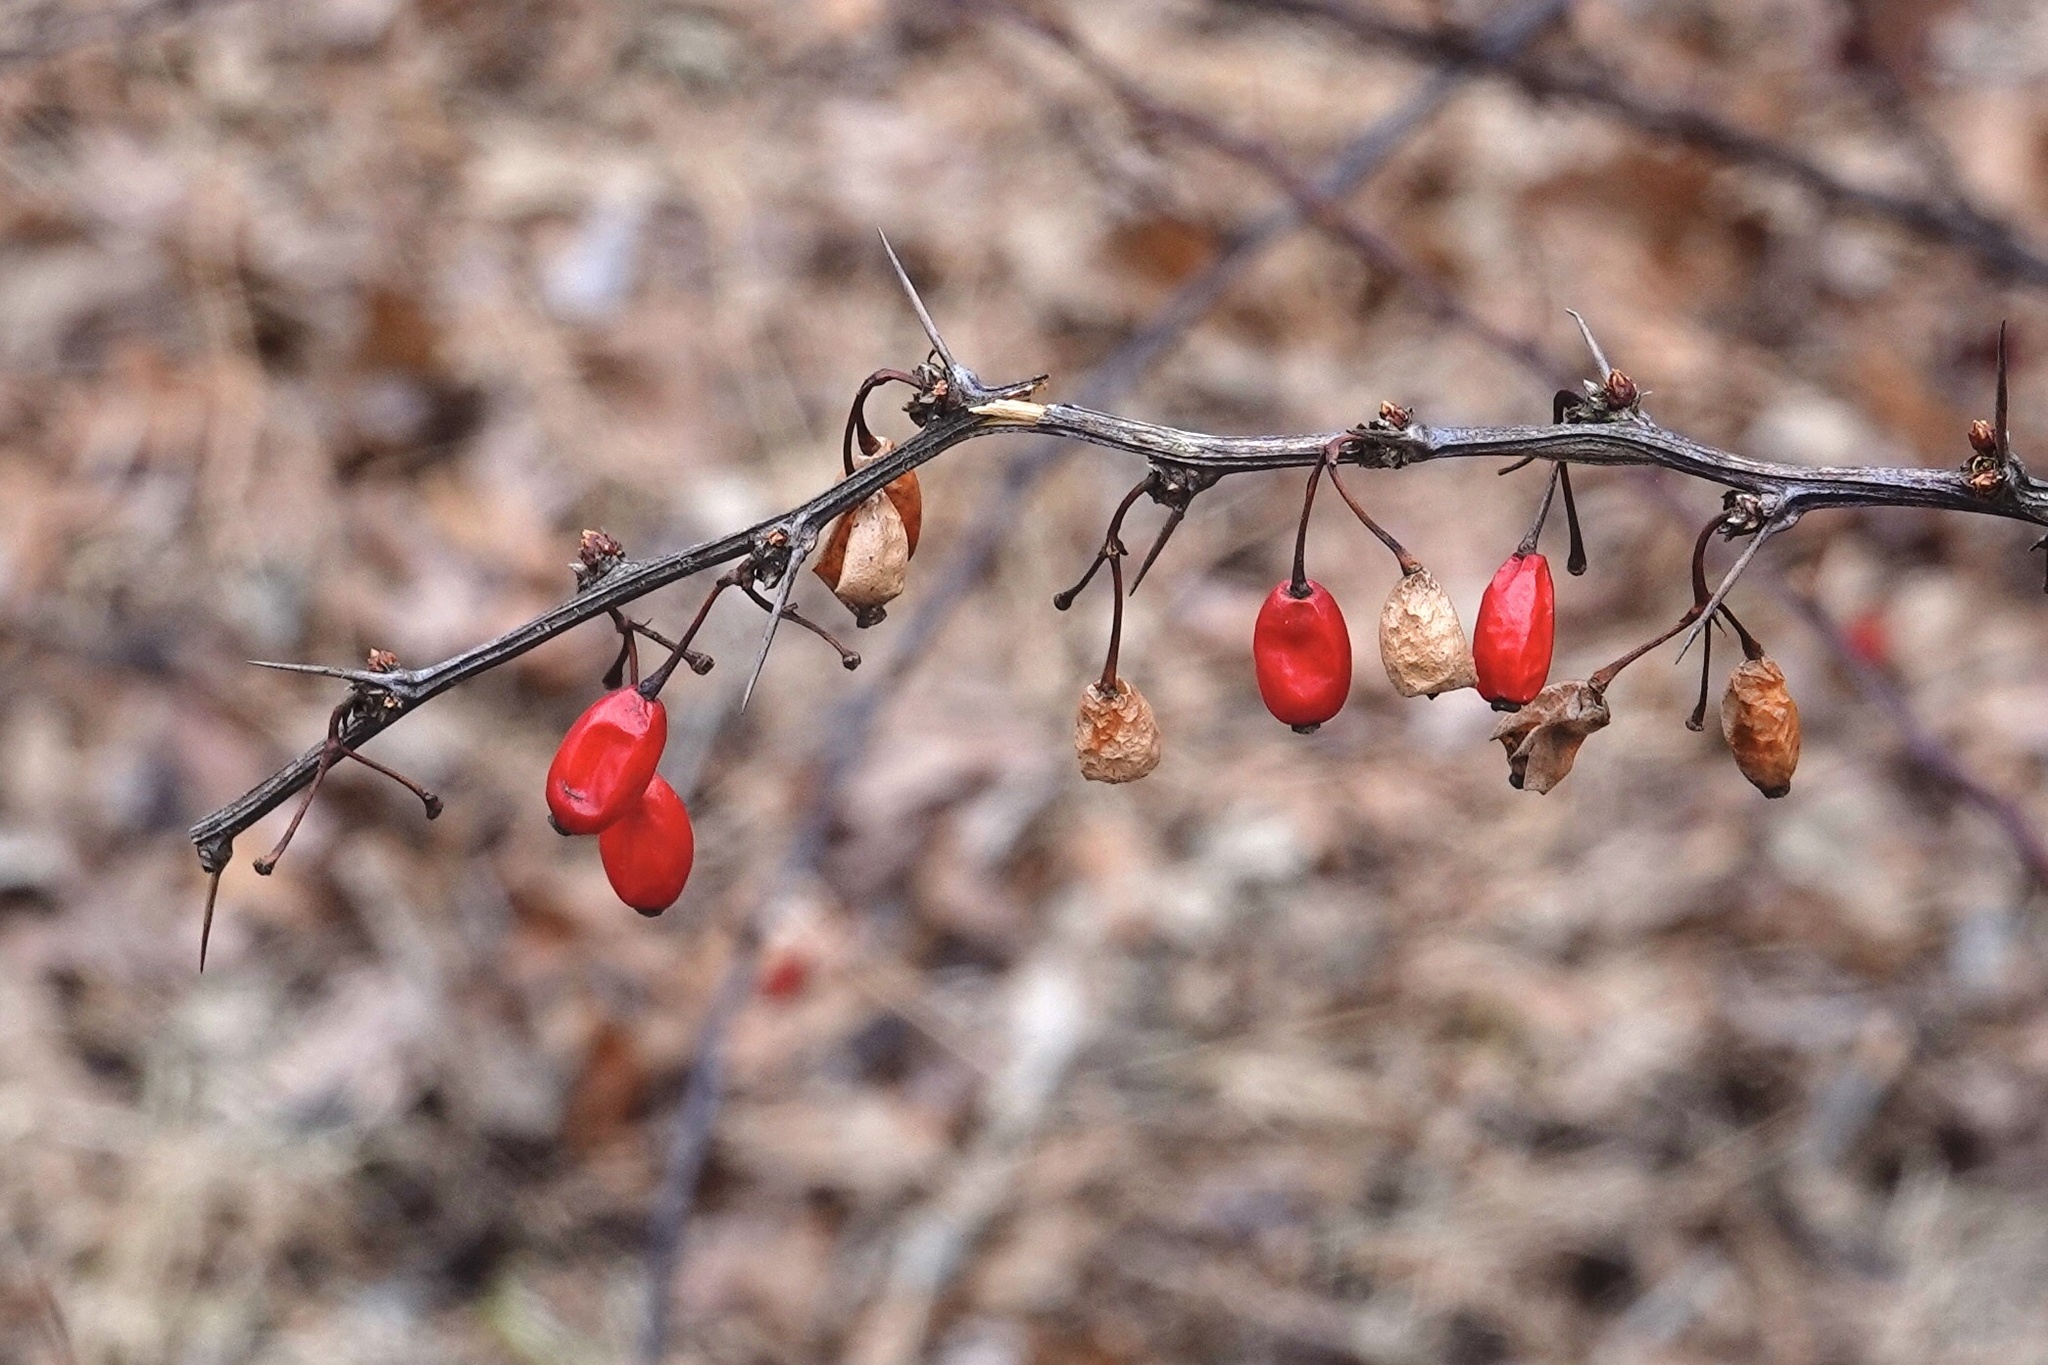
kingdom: Plantae
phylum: Tracheophyta
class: Magnoliopsida
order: Ranunculales
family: Berberidaceae
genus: Berberis
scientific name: Berberis thunbergii
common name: Japanese barberry
